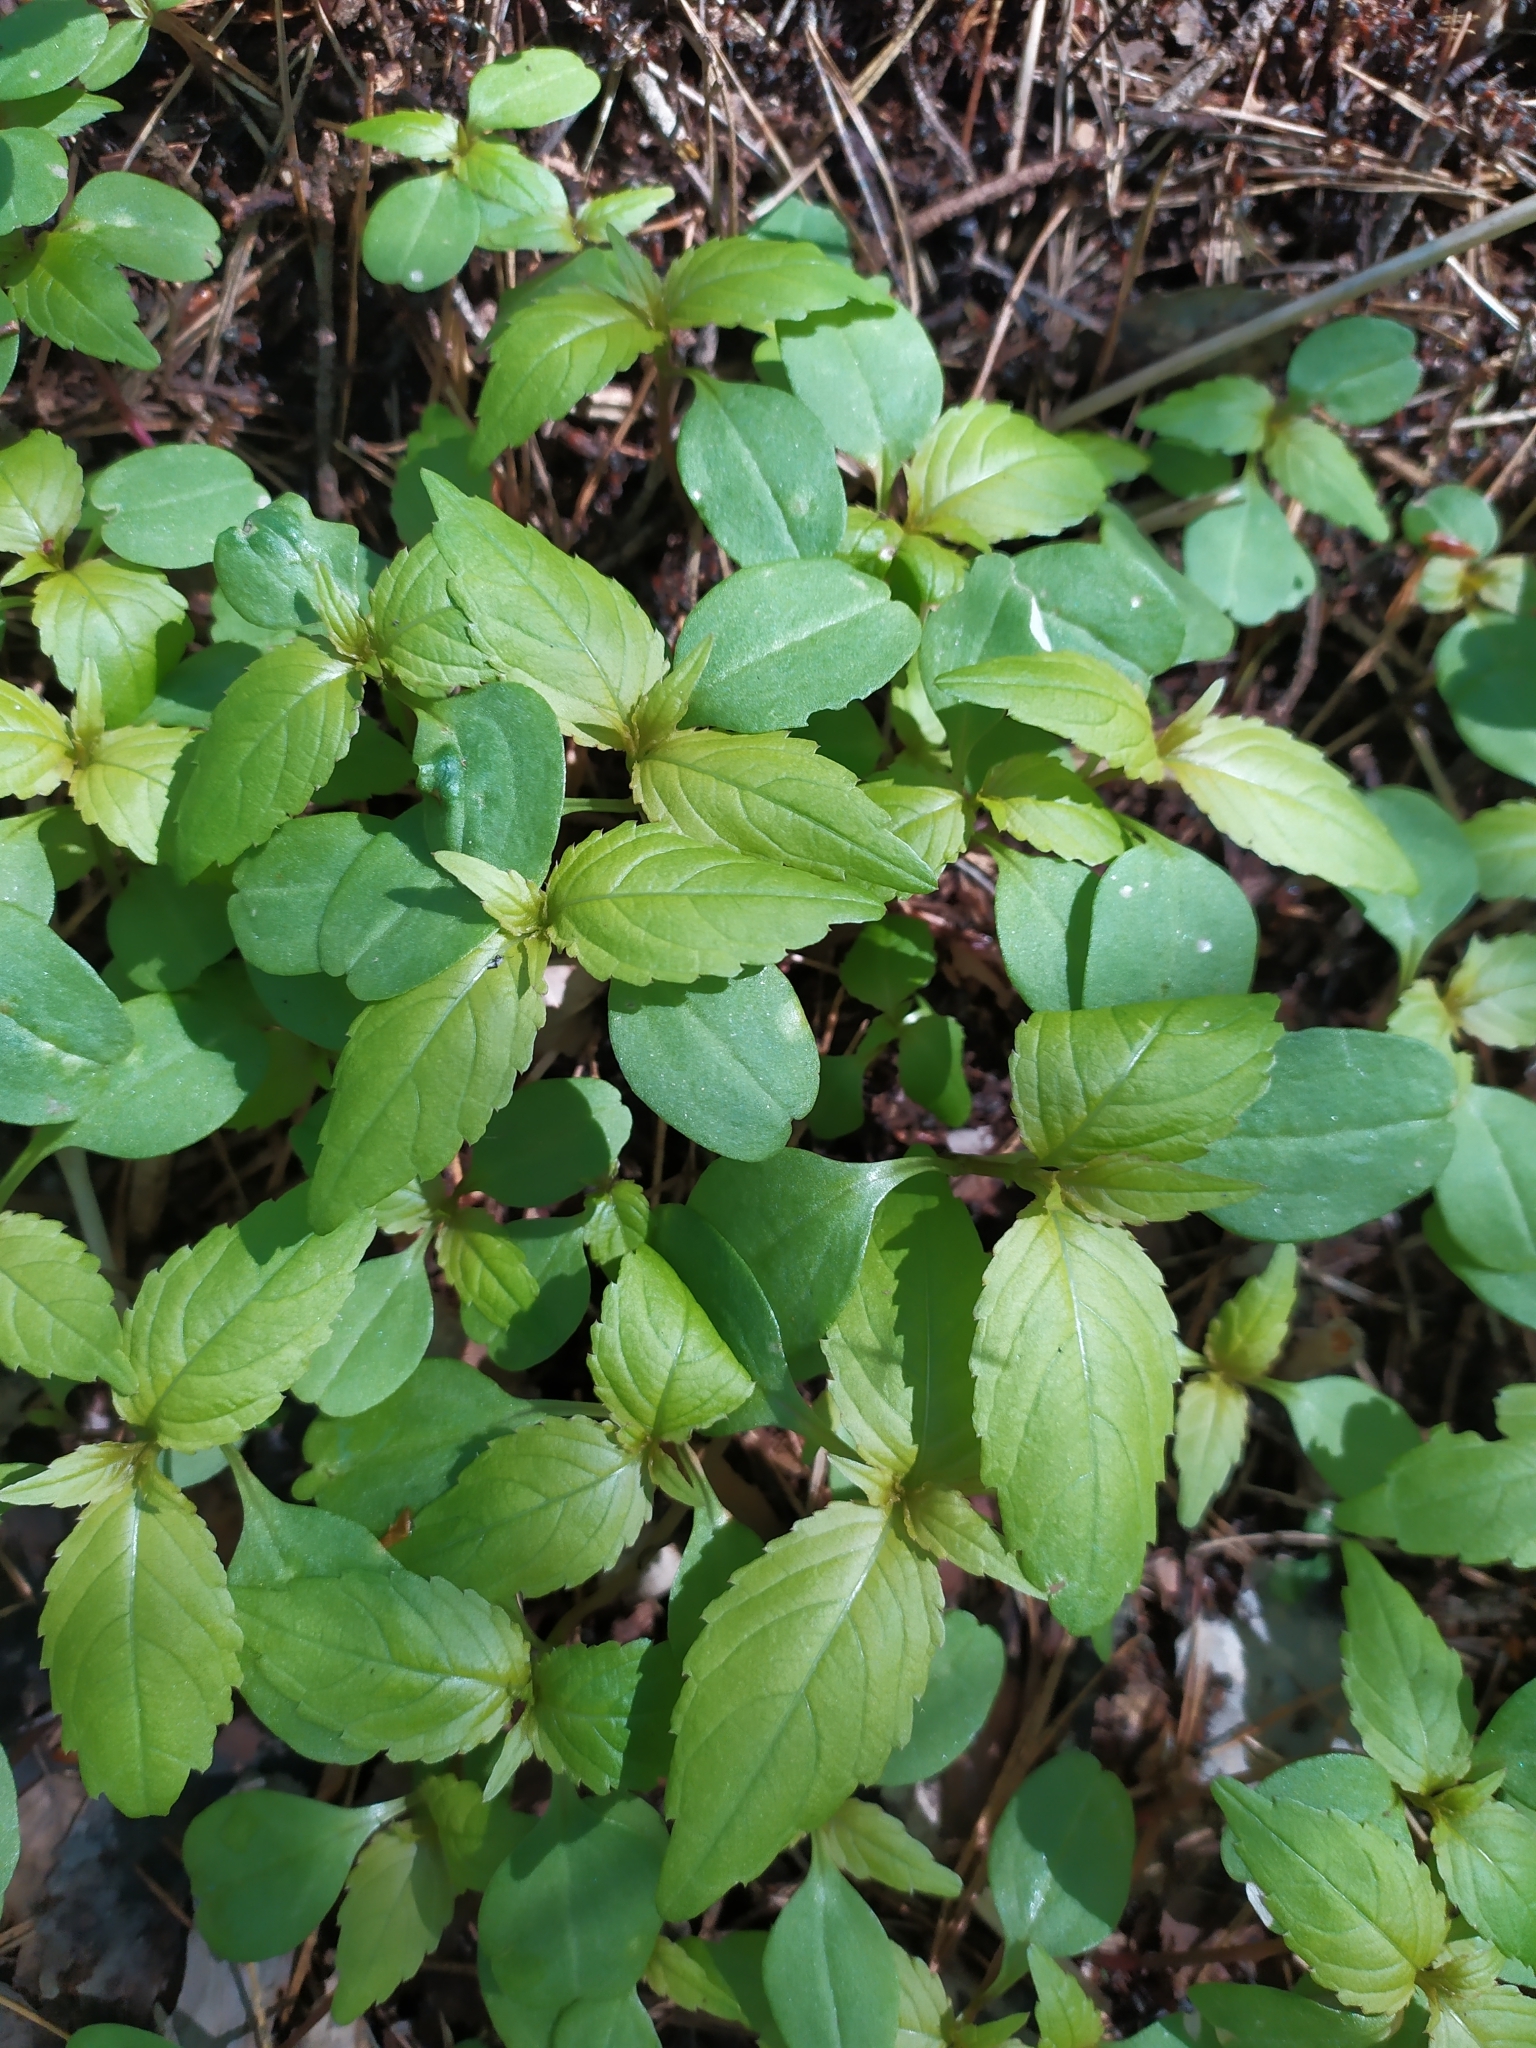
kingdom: Plantae
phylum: Tracheophyta
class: Magnoliopsida
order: Ericales
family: Balsaminaceae
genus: Impatiens
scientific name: Impatiens parviflora
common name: Small balsam
